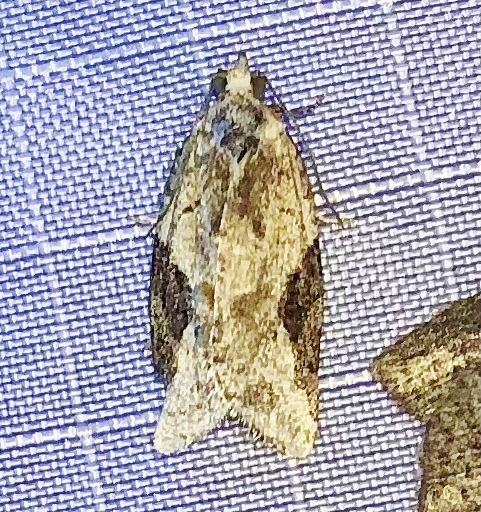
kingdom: Animalia
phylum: Arthropoda
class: Insecta
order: Lepidoptera
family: Tortricidae
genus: Argyrotaenia
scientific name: Argyrotaenia mariana
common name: Gray-banded leafroller moth
